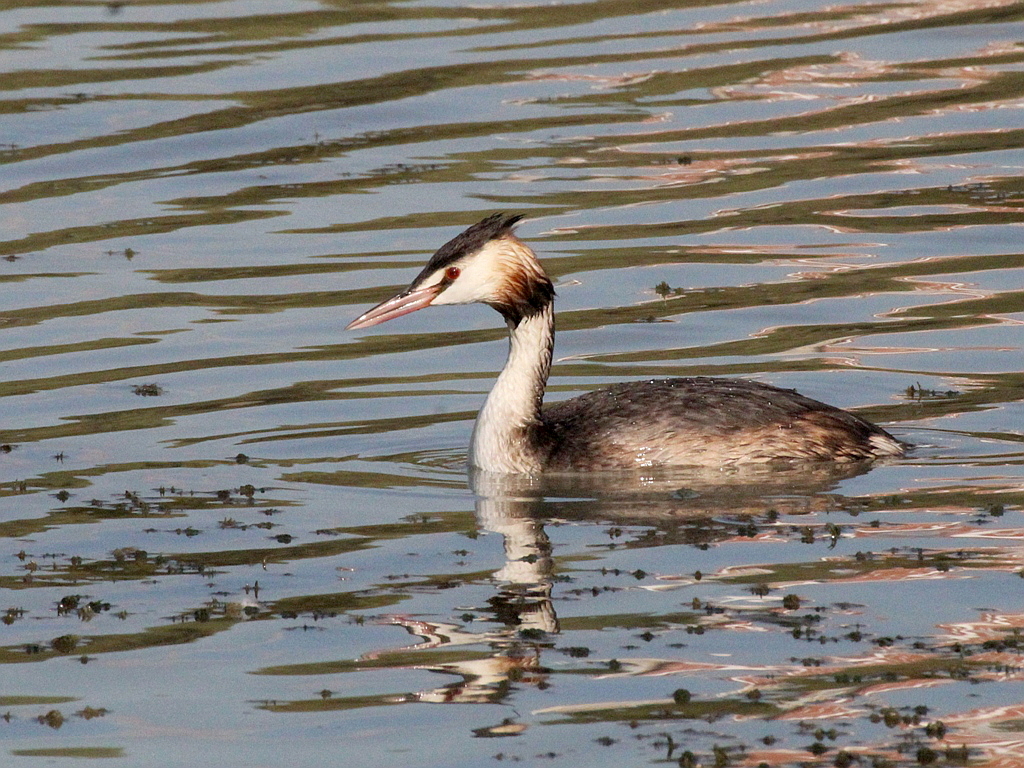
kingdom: Animalia
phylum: Chordata
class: Aves
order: Podicipediformes
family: Podicipedidae
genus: Podiceps
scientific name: Podiceps cristatus
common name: Great crested grebe
